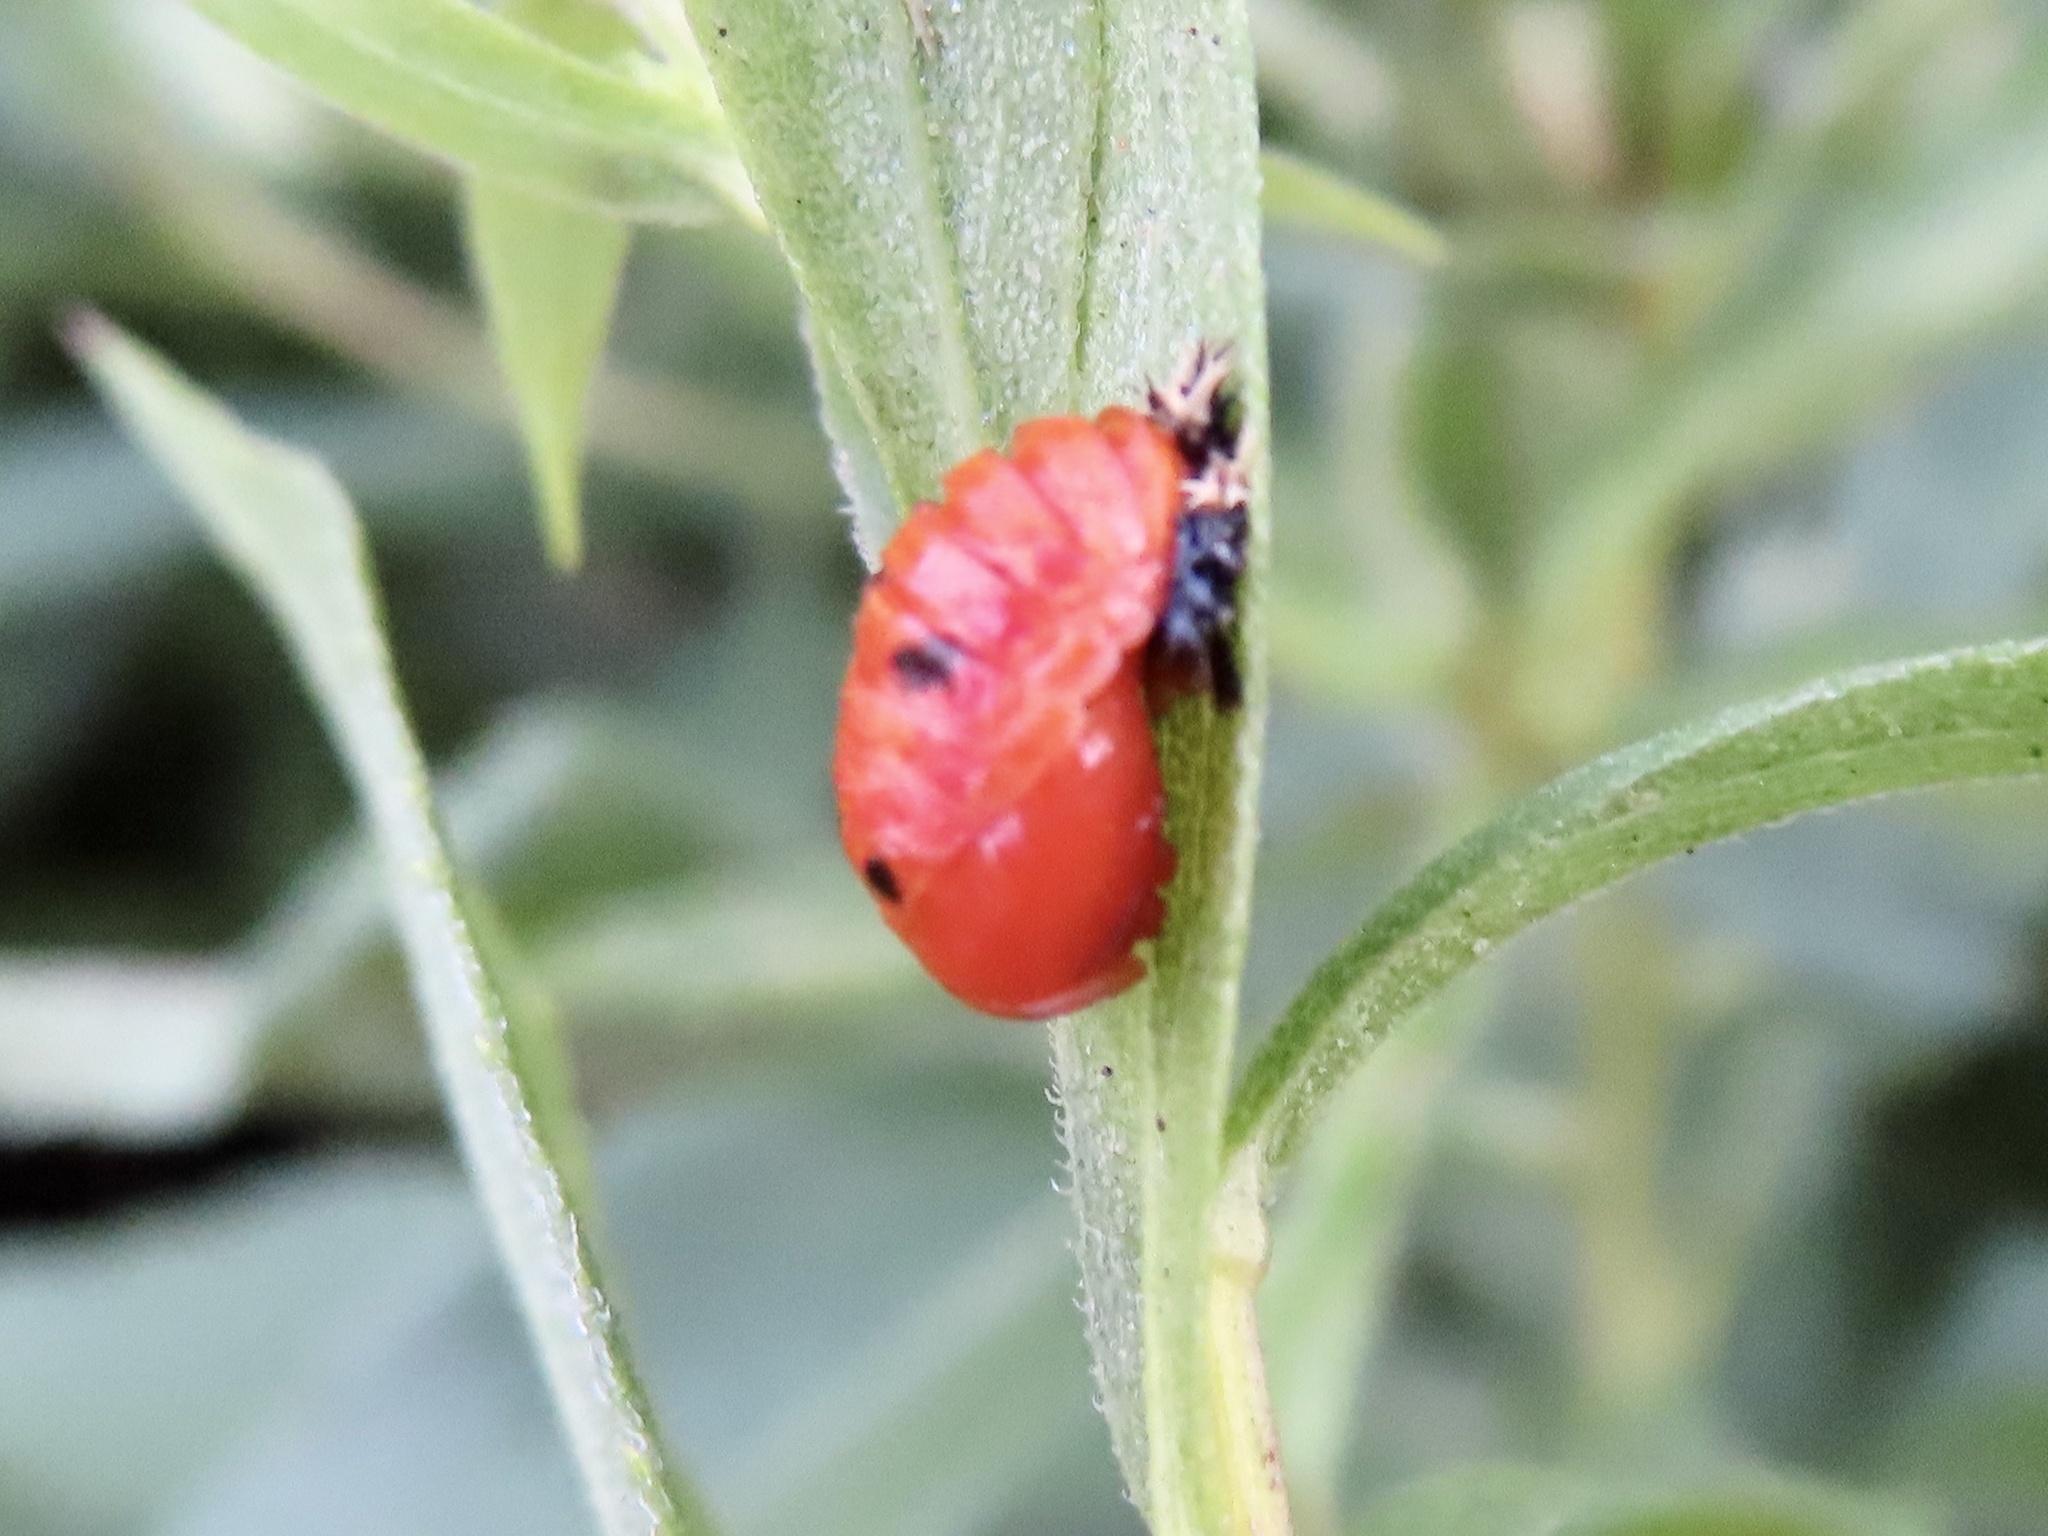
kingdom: Animalia
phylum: Arthropoda
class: Insecta
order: Coleoptera
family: Coccinellidae
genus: Harmonia
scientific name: Harmonia axyridis
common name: Harlequin ladybird
